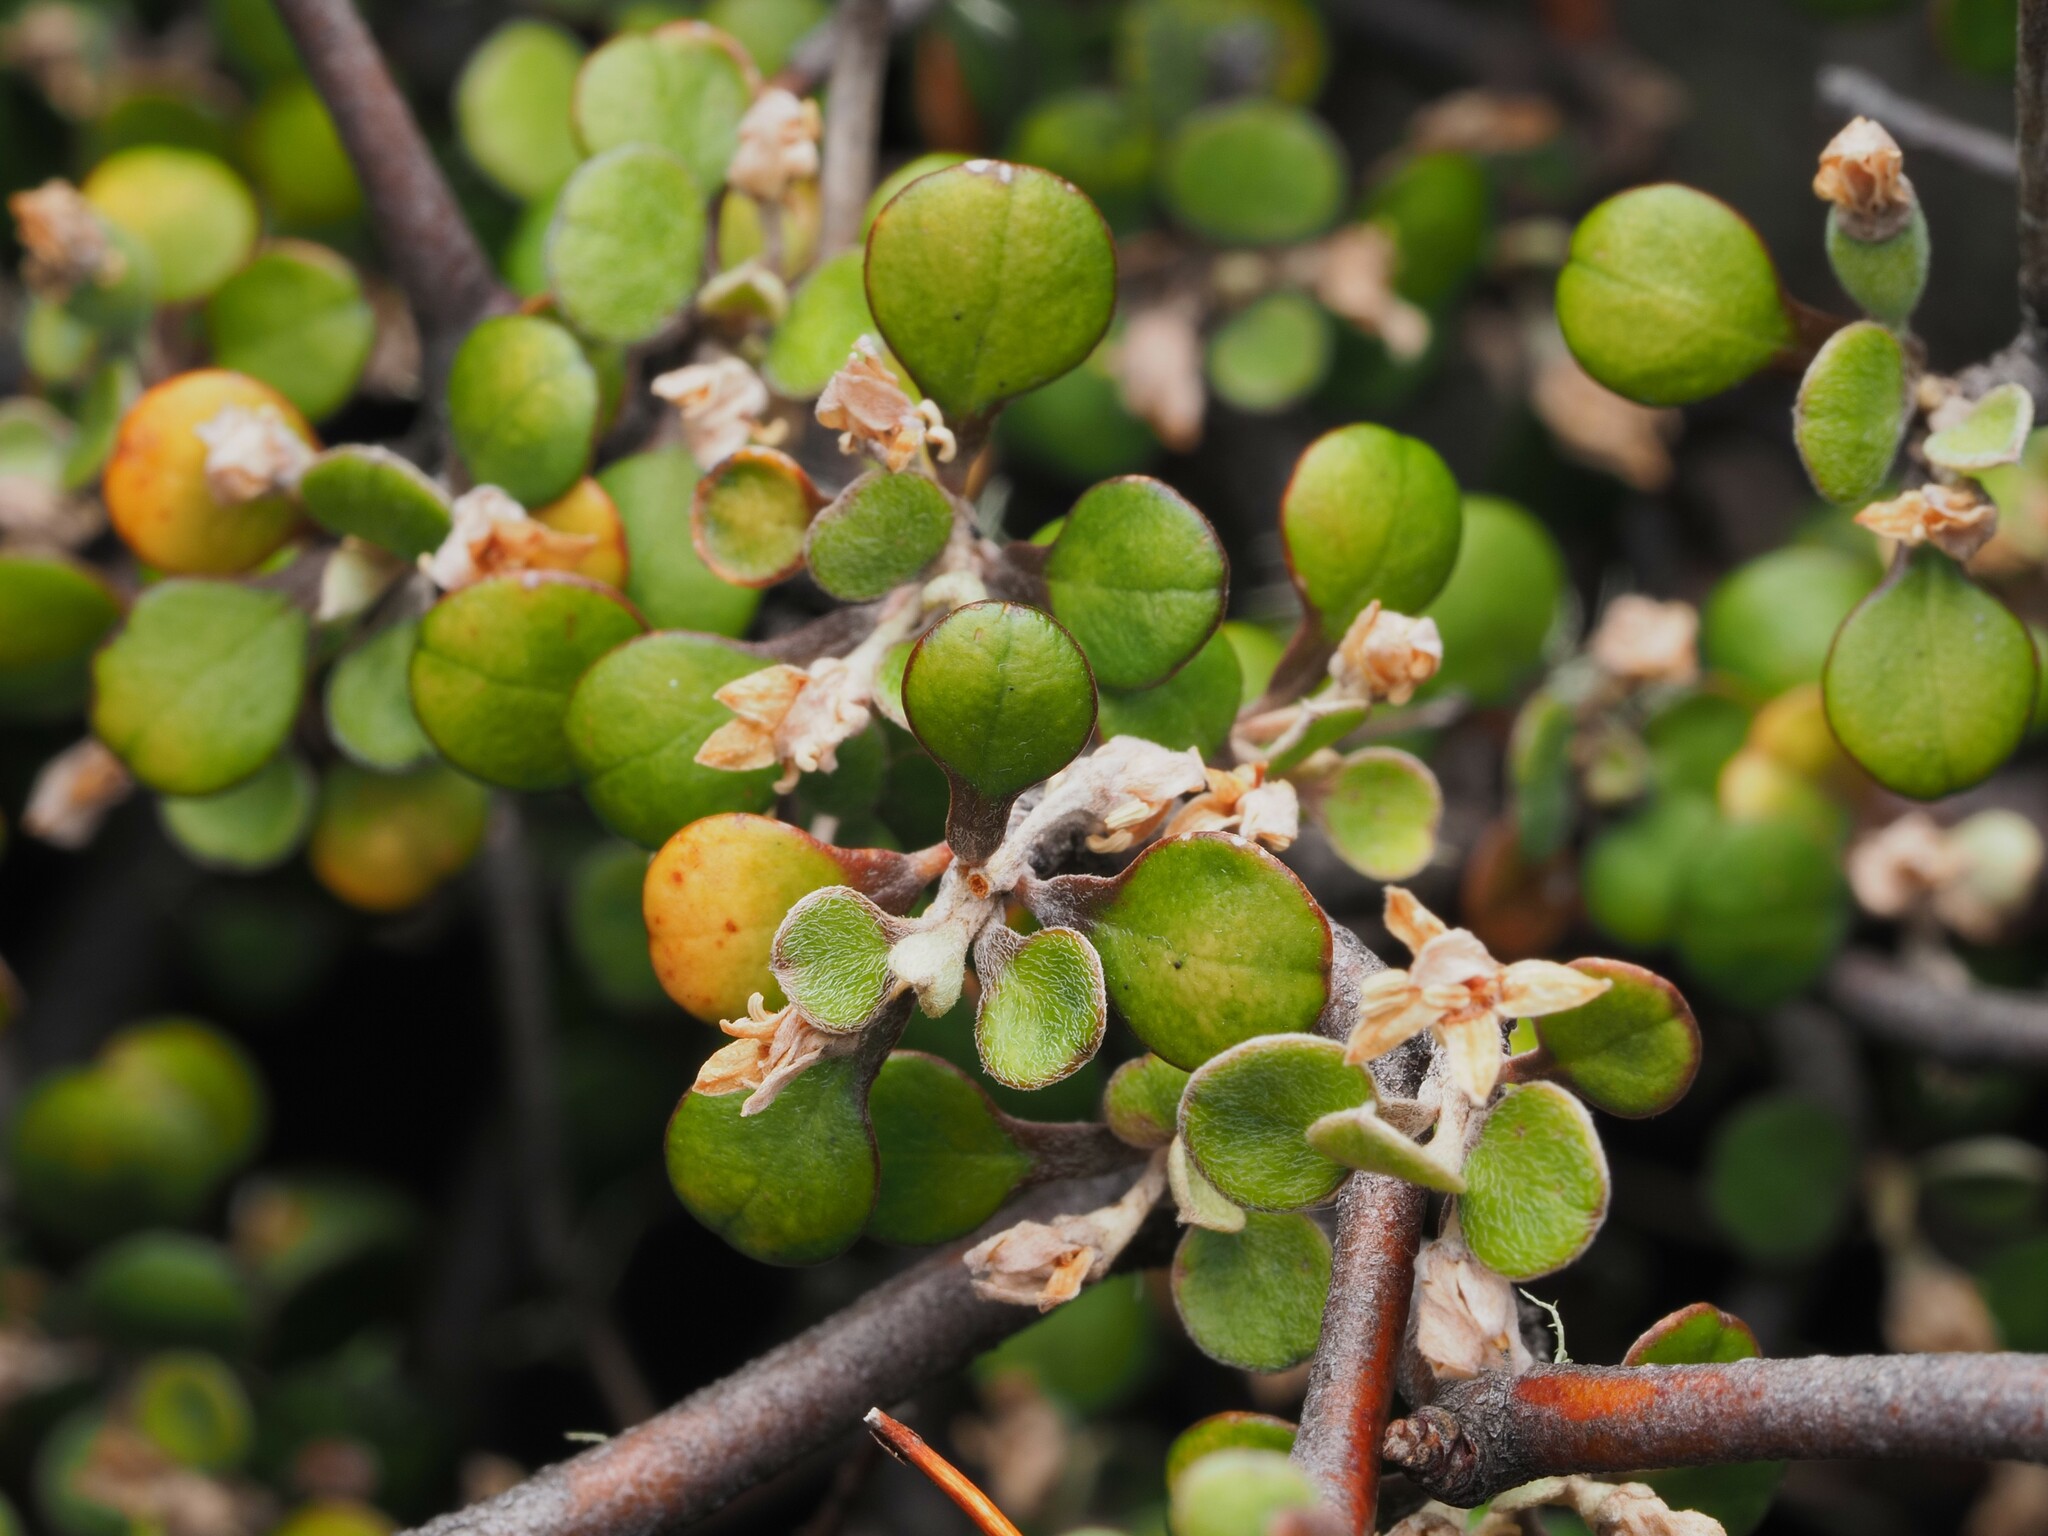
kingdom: Plantae
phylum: Tracheophyta
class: Magnoliopsida
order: Asterales
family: Argophyllaceae
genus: Corokia
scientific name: Corokia cotoneaster
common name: Wire nettingbush
